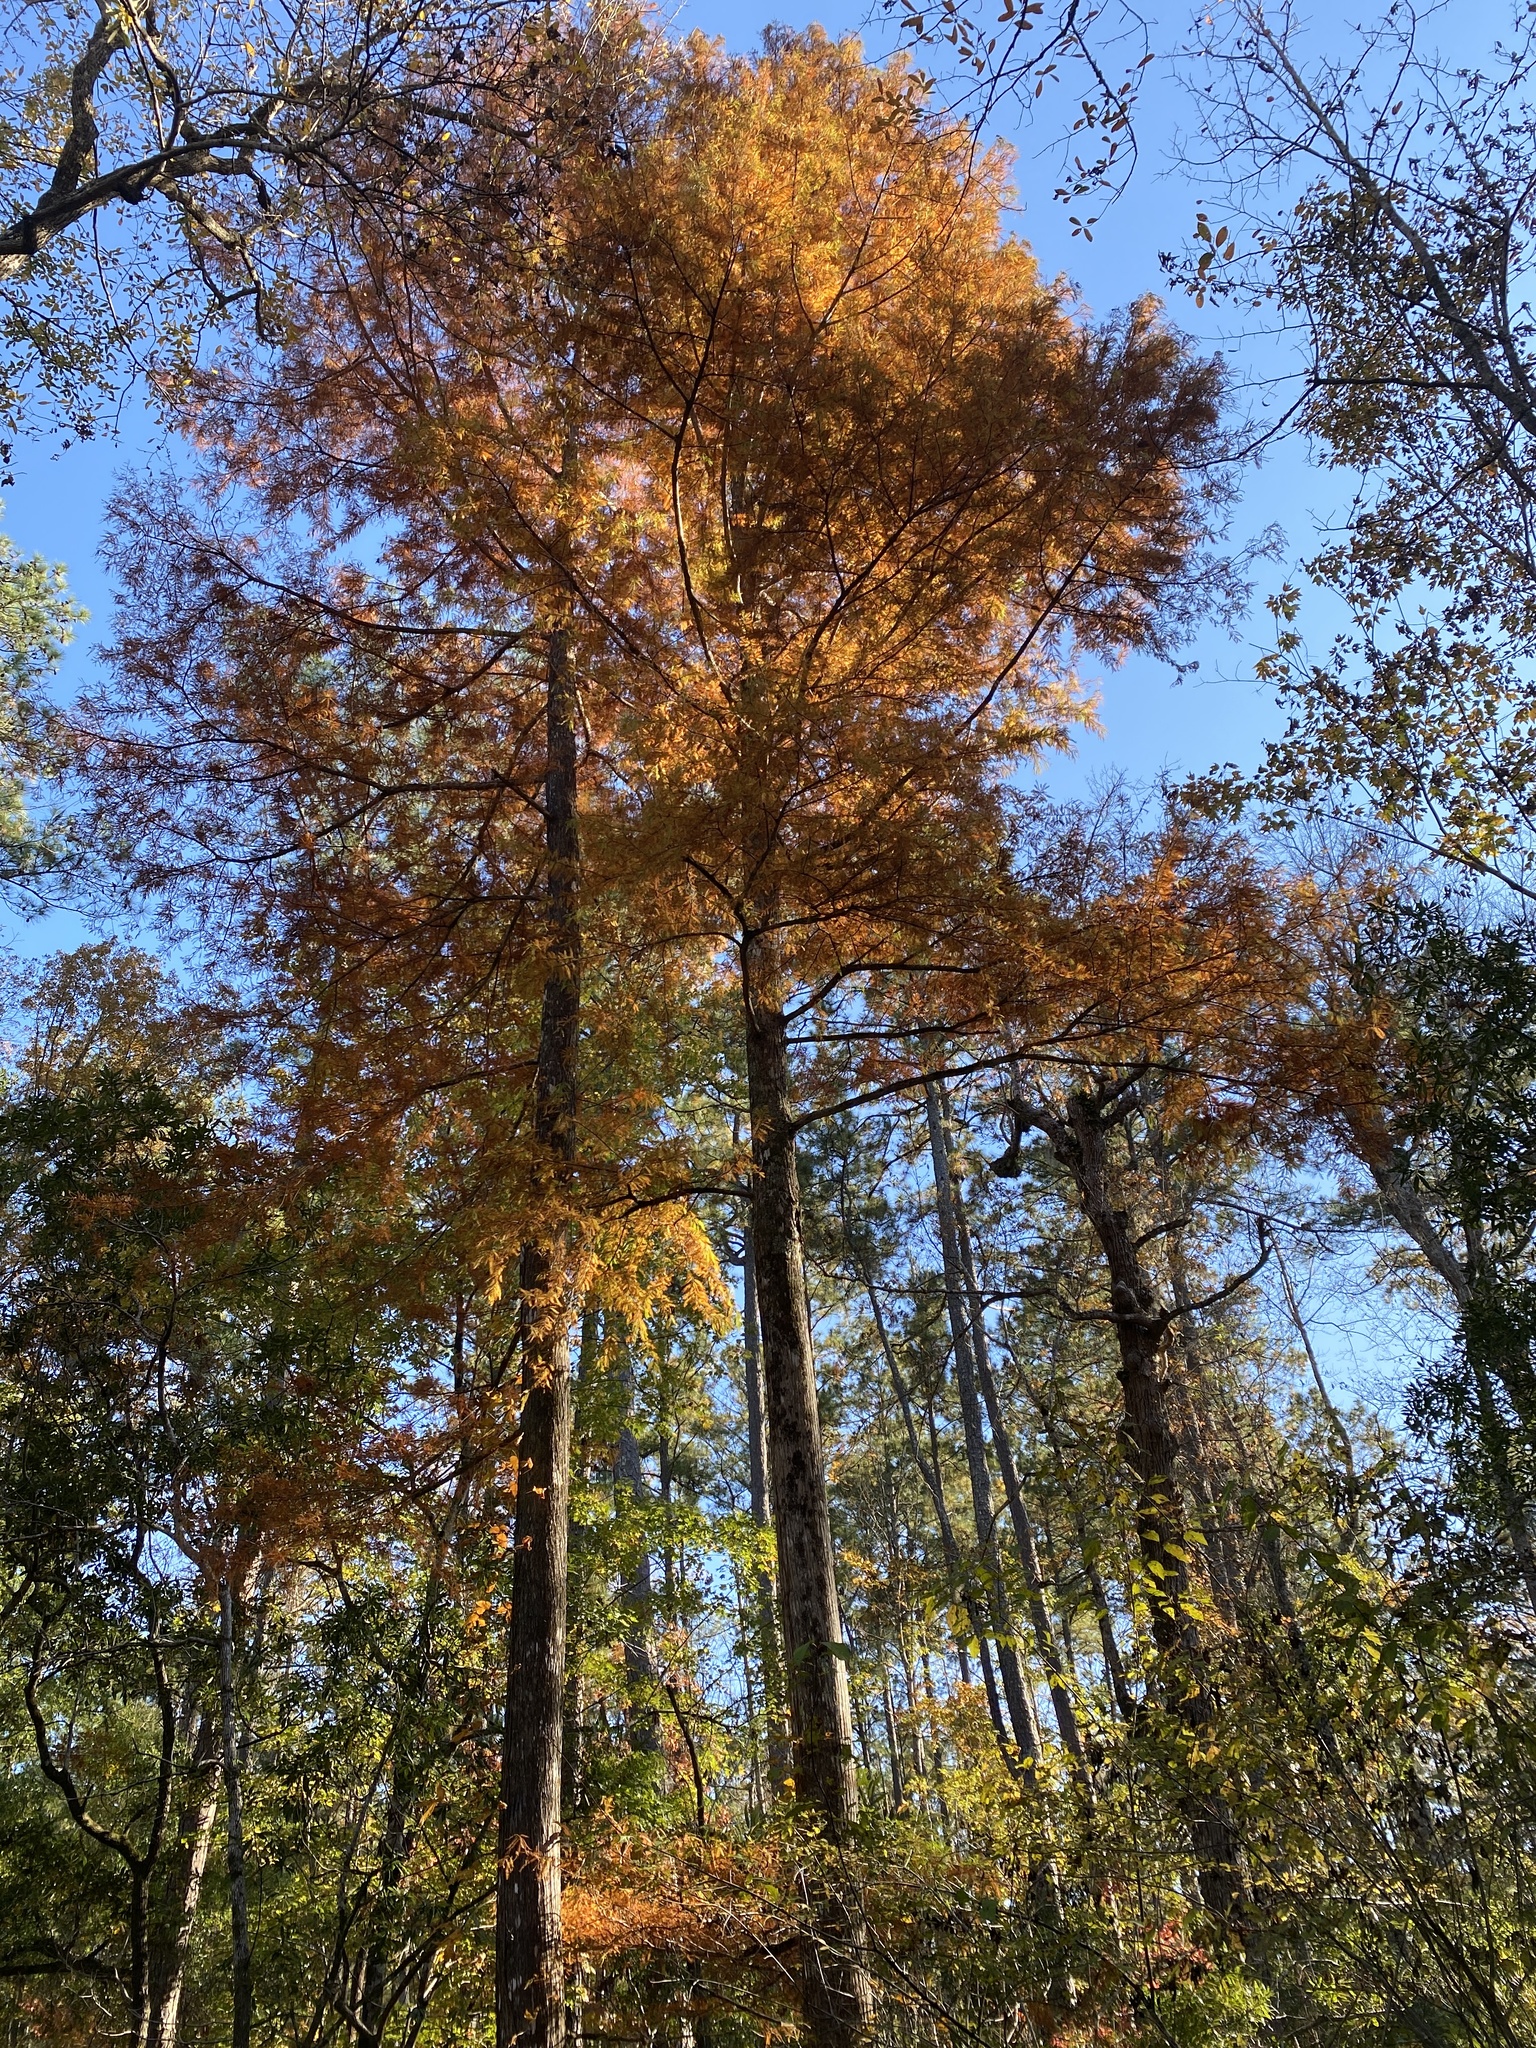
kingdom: Plantae
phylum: Tracheophyta
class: Pinopsida
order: Pinales
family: Cupressaceae
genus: Taxodium
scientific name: Taxodium distichum
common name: Bald cypress
